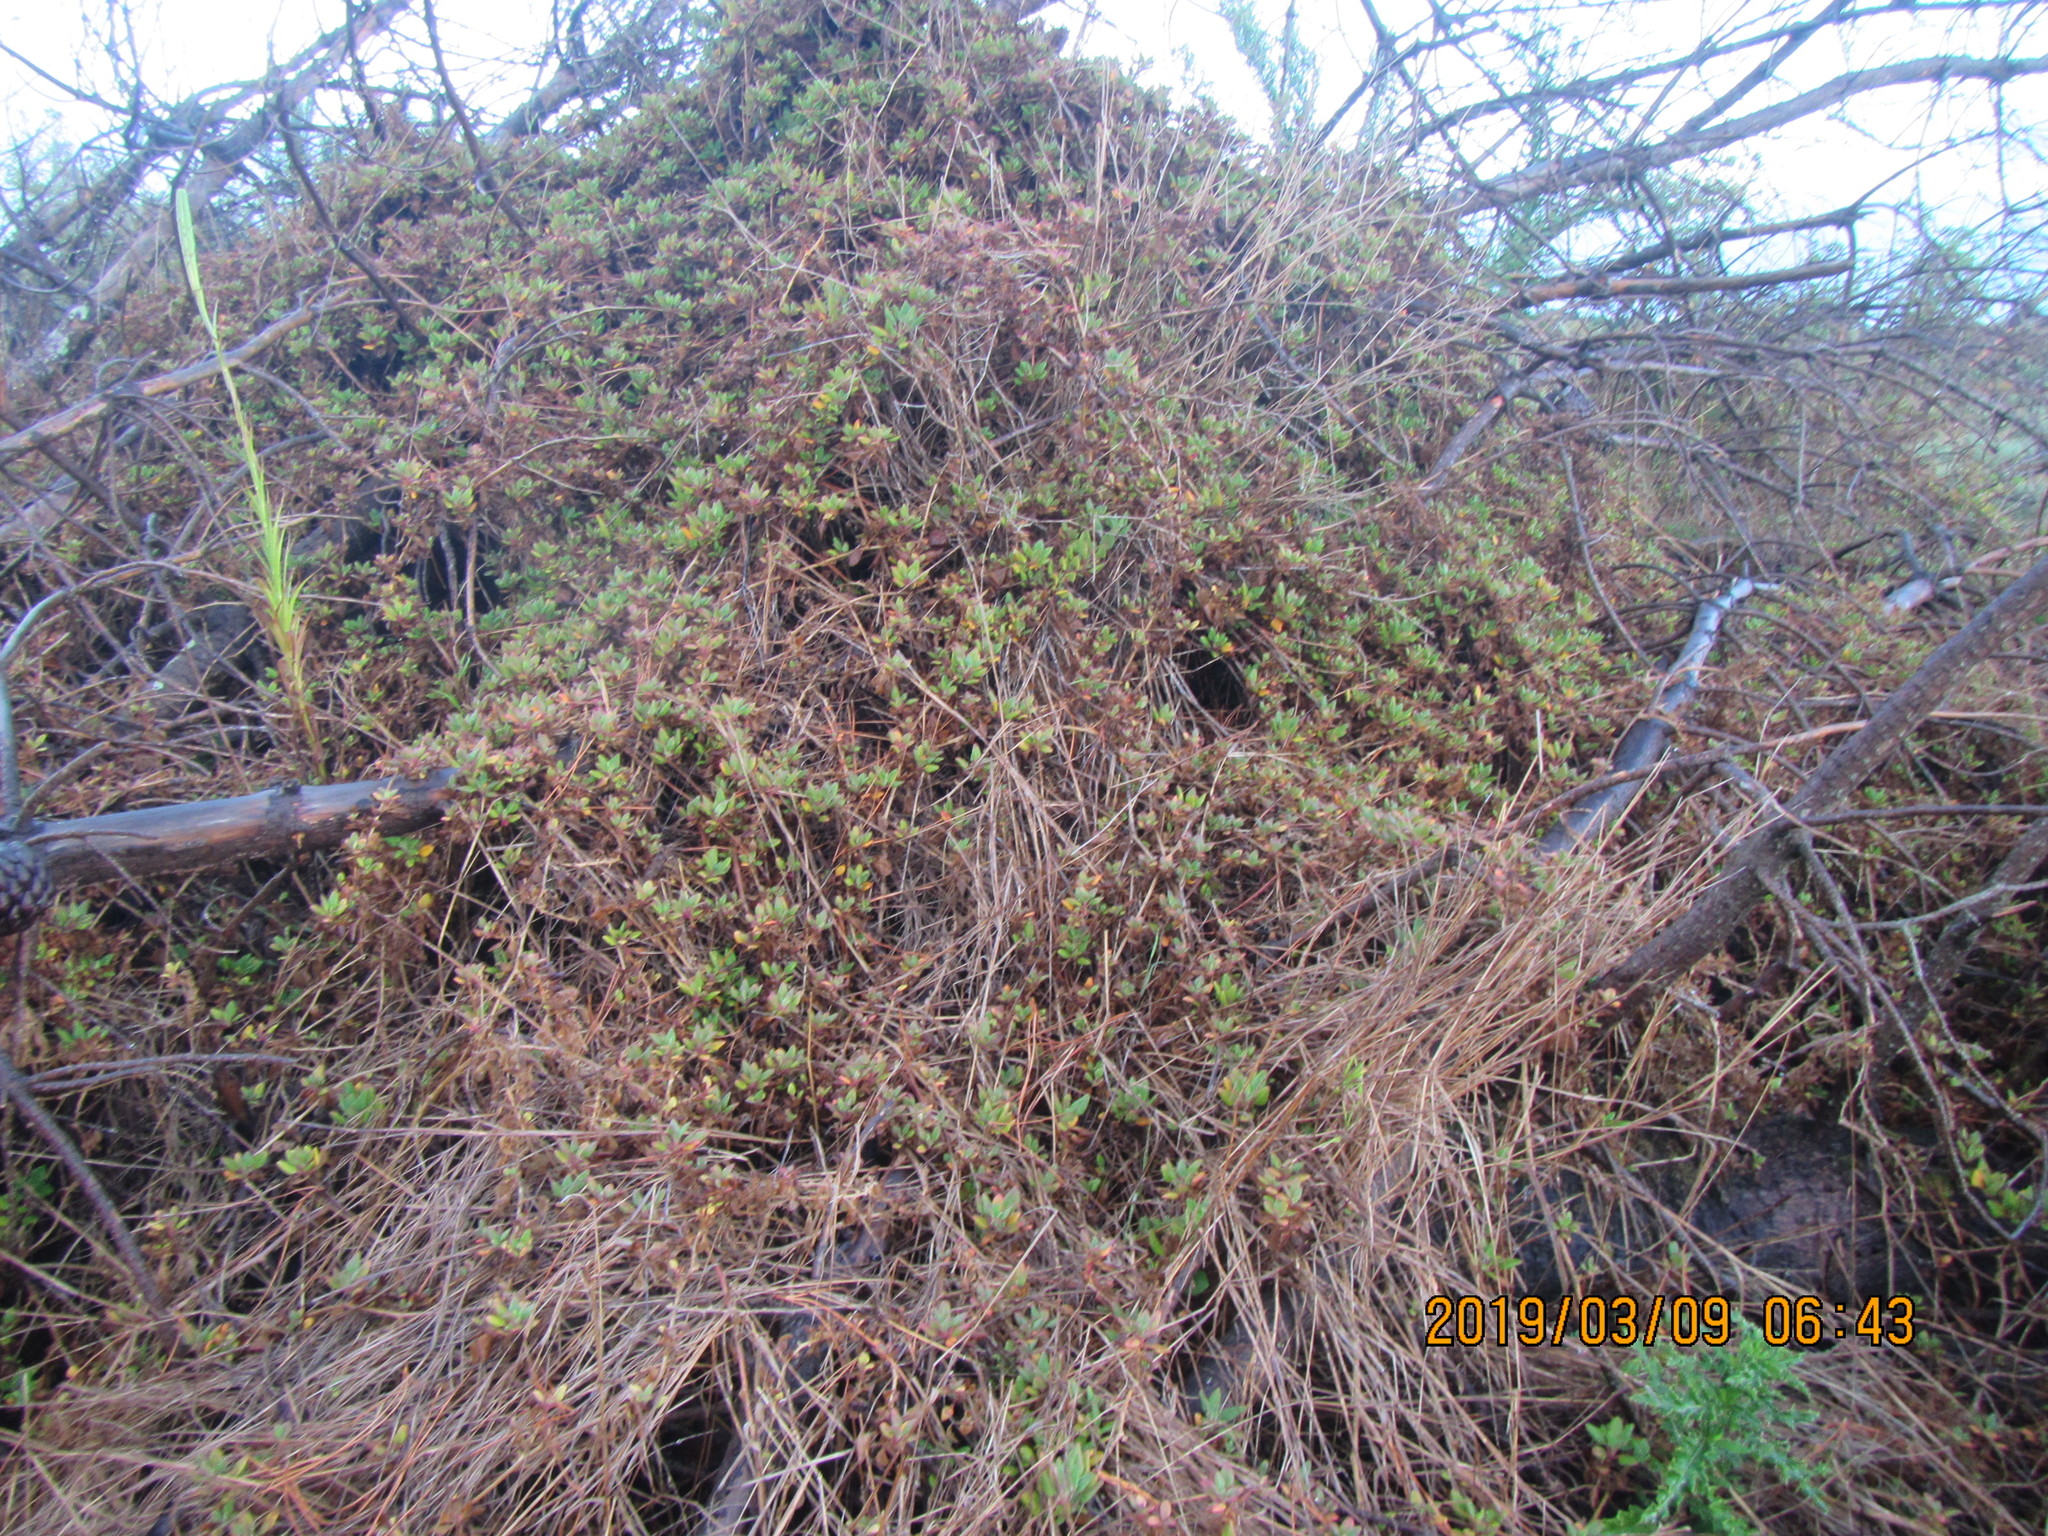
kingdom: Plantae
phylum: Tracheophyta
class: Magnoliopsida
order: Caryophyllales
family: Aizoaceae
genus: Tetragonia
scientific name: Tetragonia implexicoma
